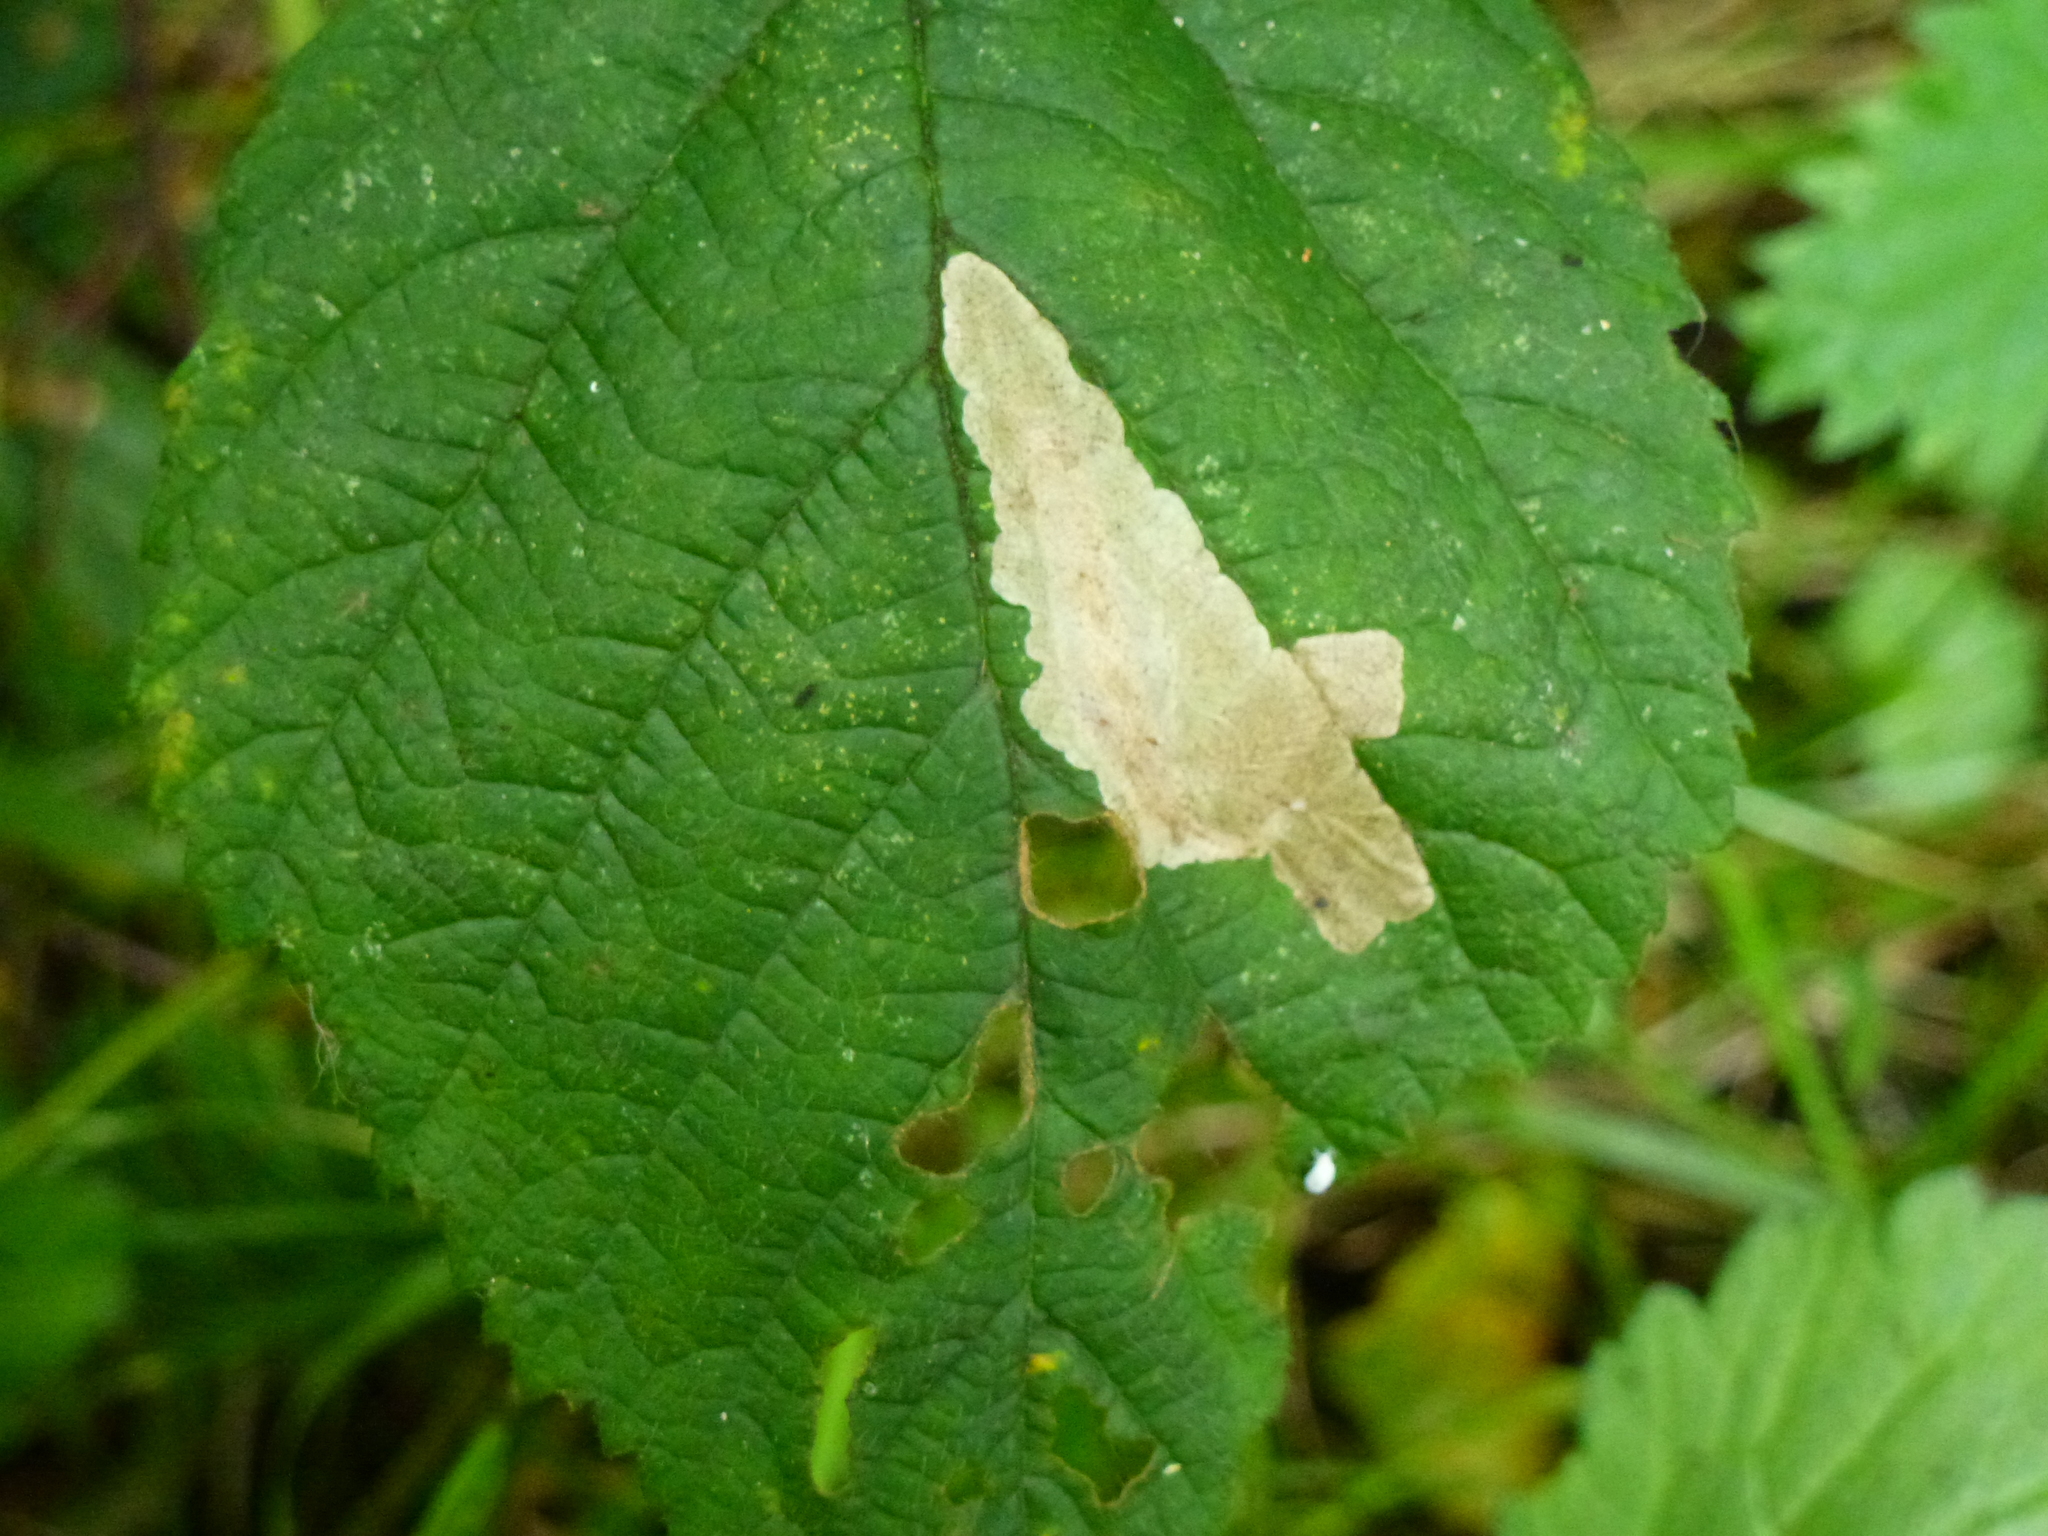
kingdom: Animalia
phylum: Arthropoda
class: Insecta
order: Lepidoptera
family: Tischeriidae
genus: Coptotriche
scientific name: Coptotriche marginea
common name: Bordered carl
